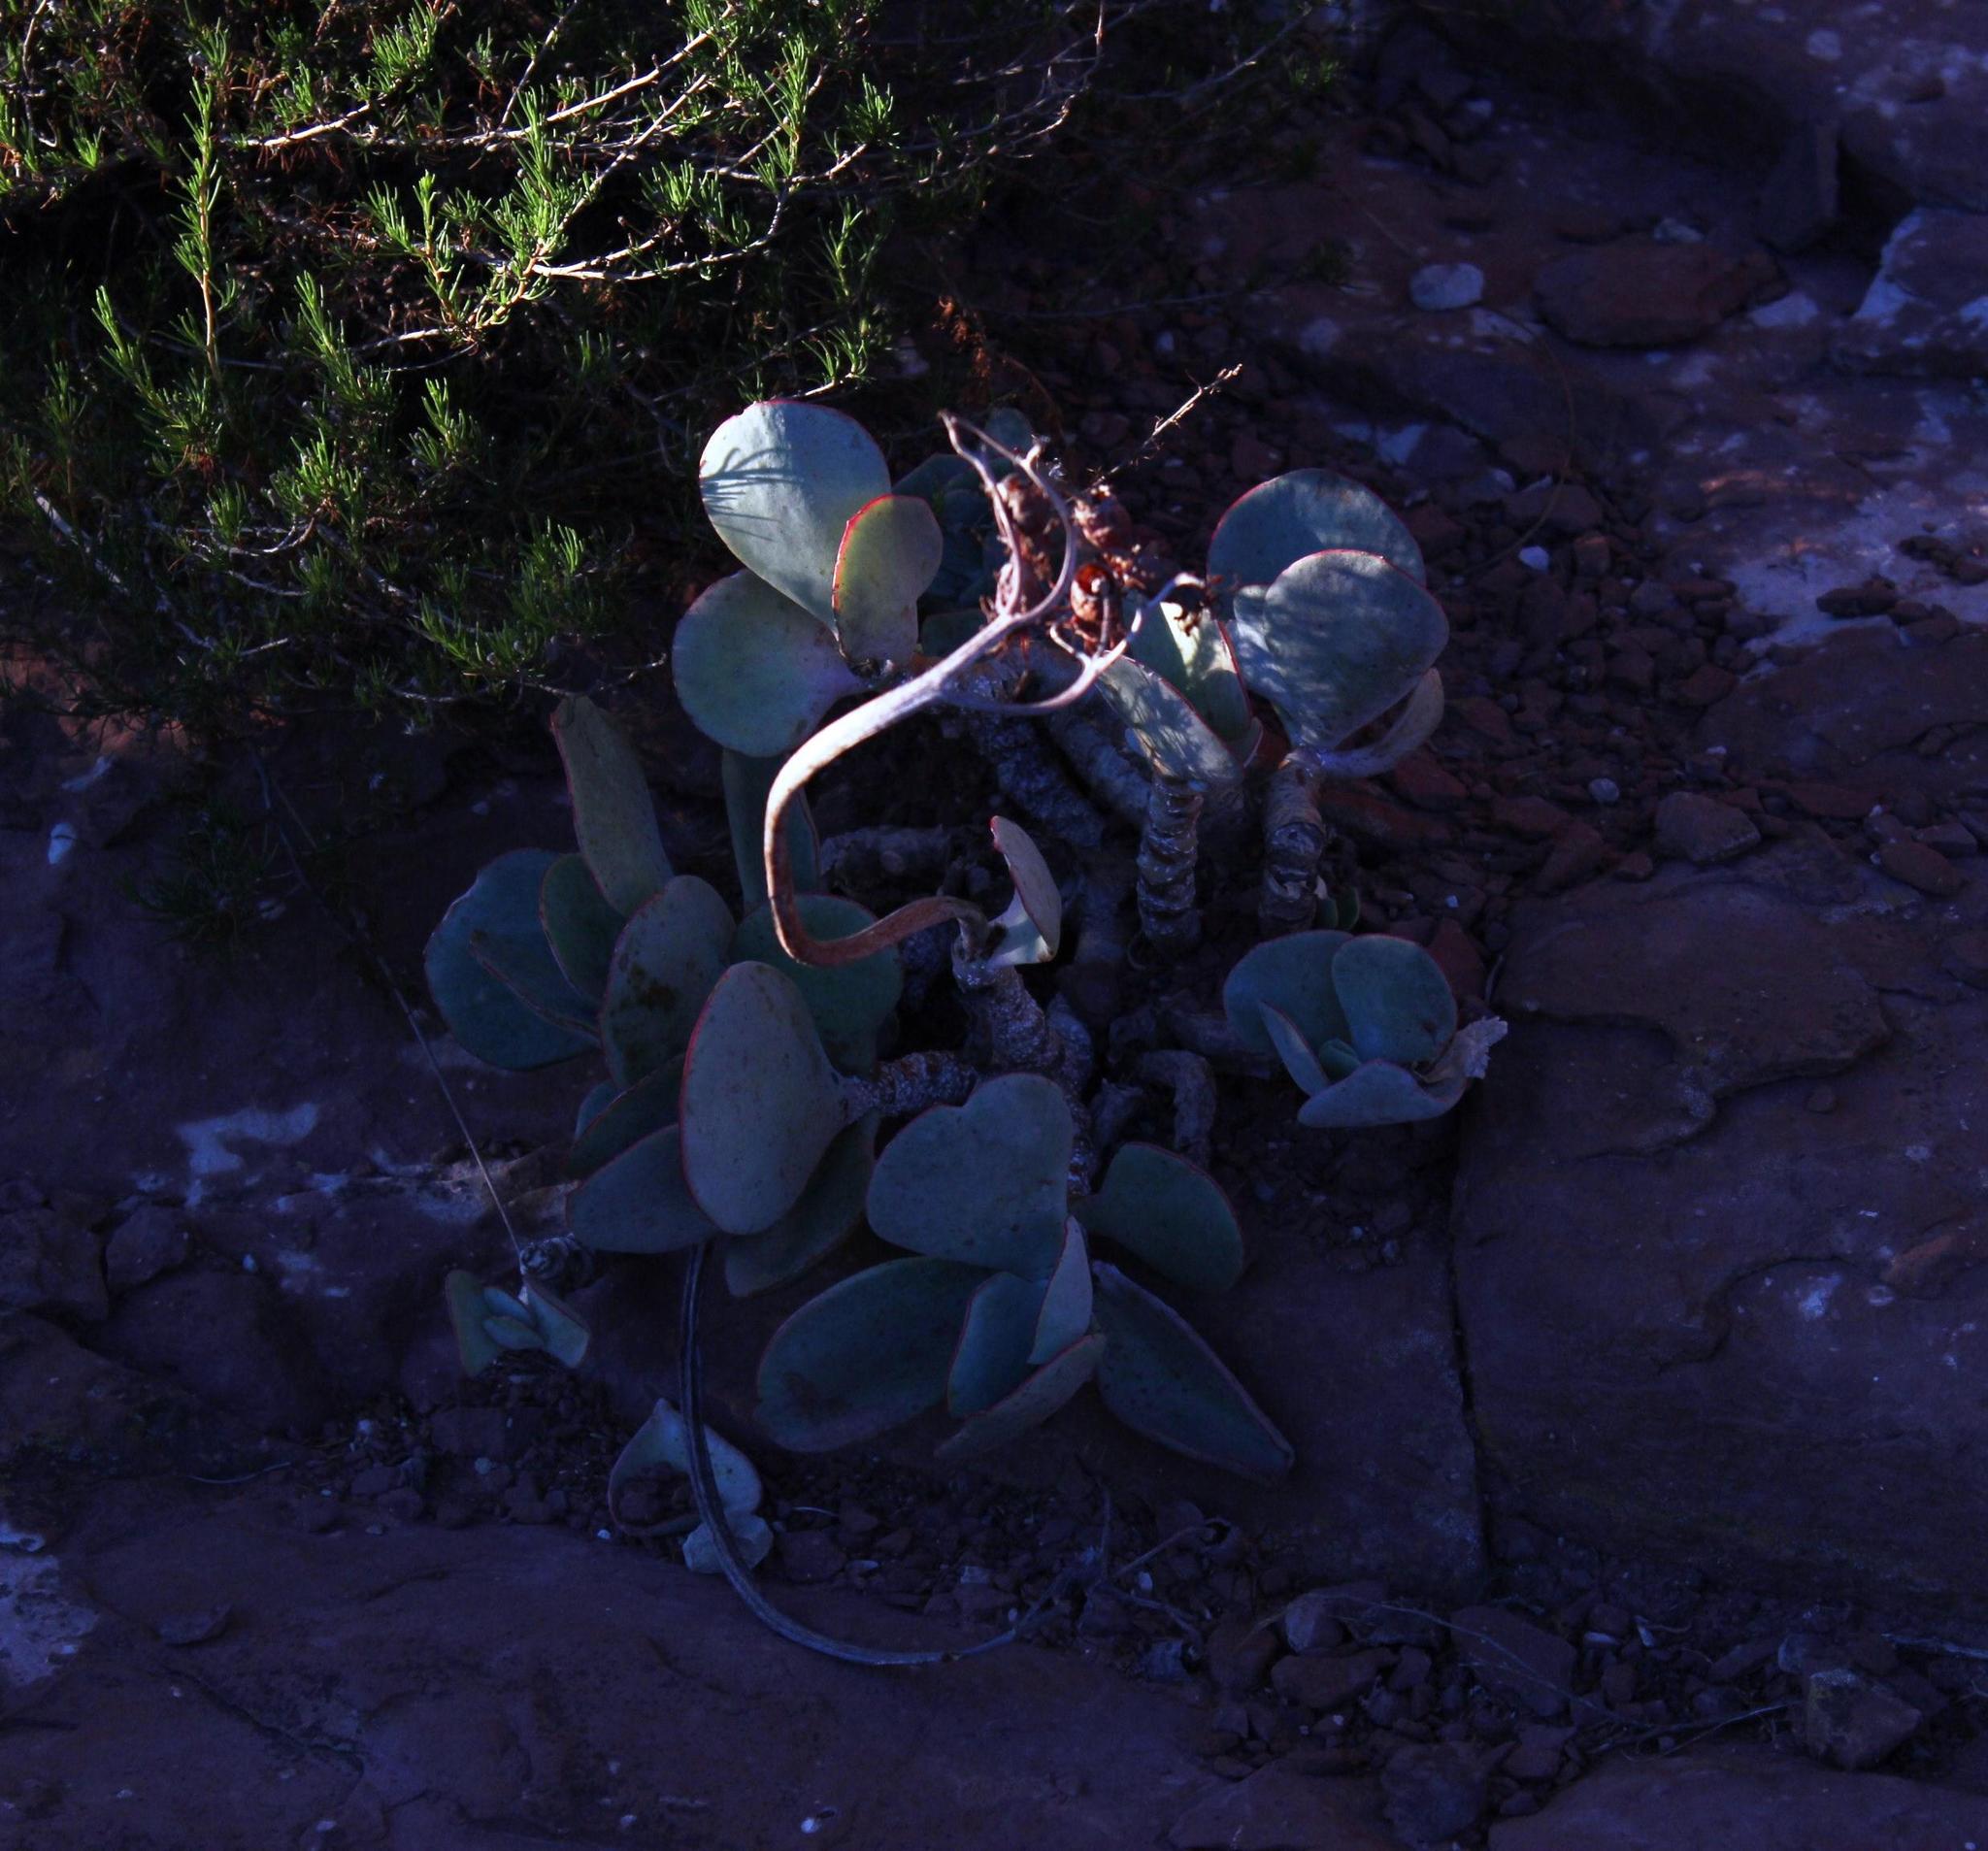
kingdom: Plantae
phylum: Tracheophyta
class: Magnoliopsida
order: Saxifragales
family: Crassulaceae
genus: Cotyledon
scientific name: Cotyledon orbiculata
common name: Pig's ear
